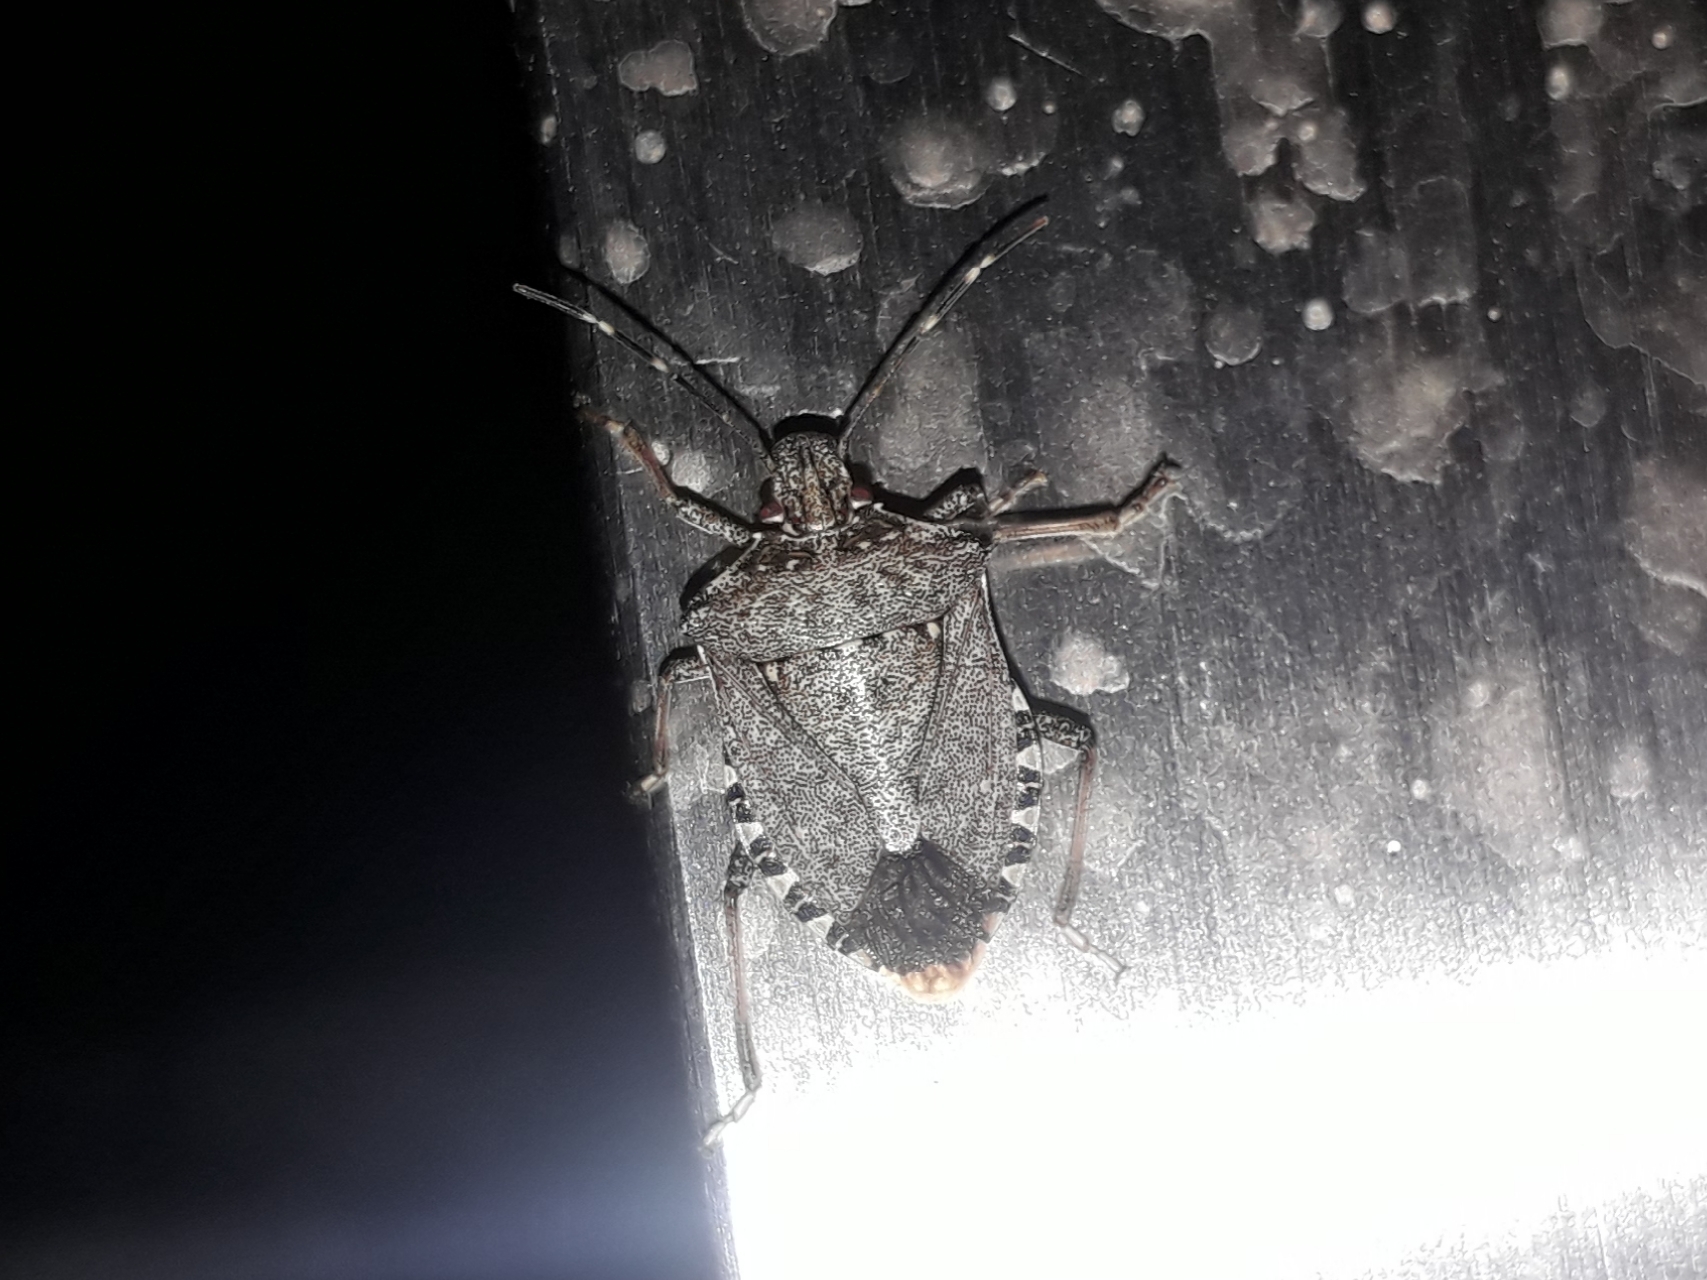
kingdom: Animalia
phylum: Arthropoda
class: Insecta
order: Hemiptera
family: Pentatomidae
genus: Halyomorpha
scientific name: Halyomorpha halys
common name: Brown marmorated stink bug
